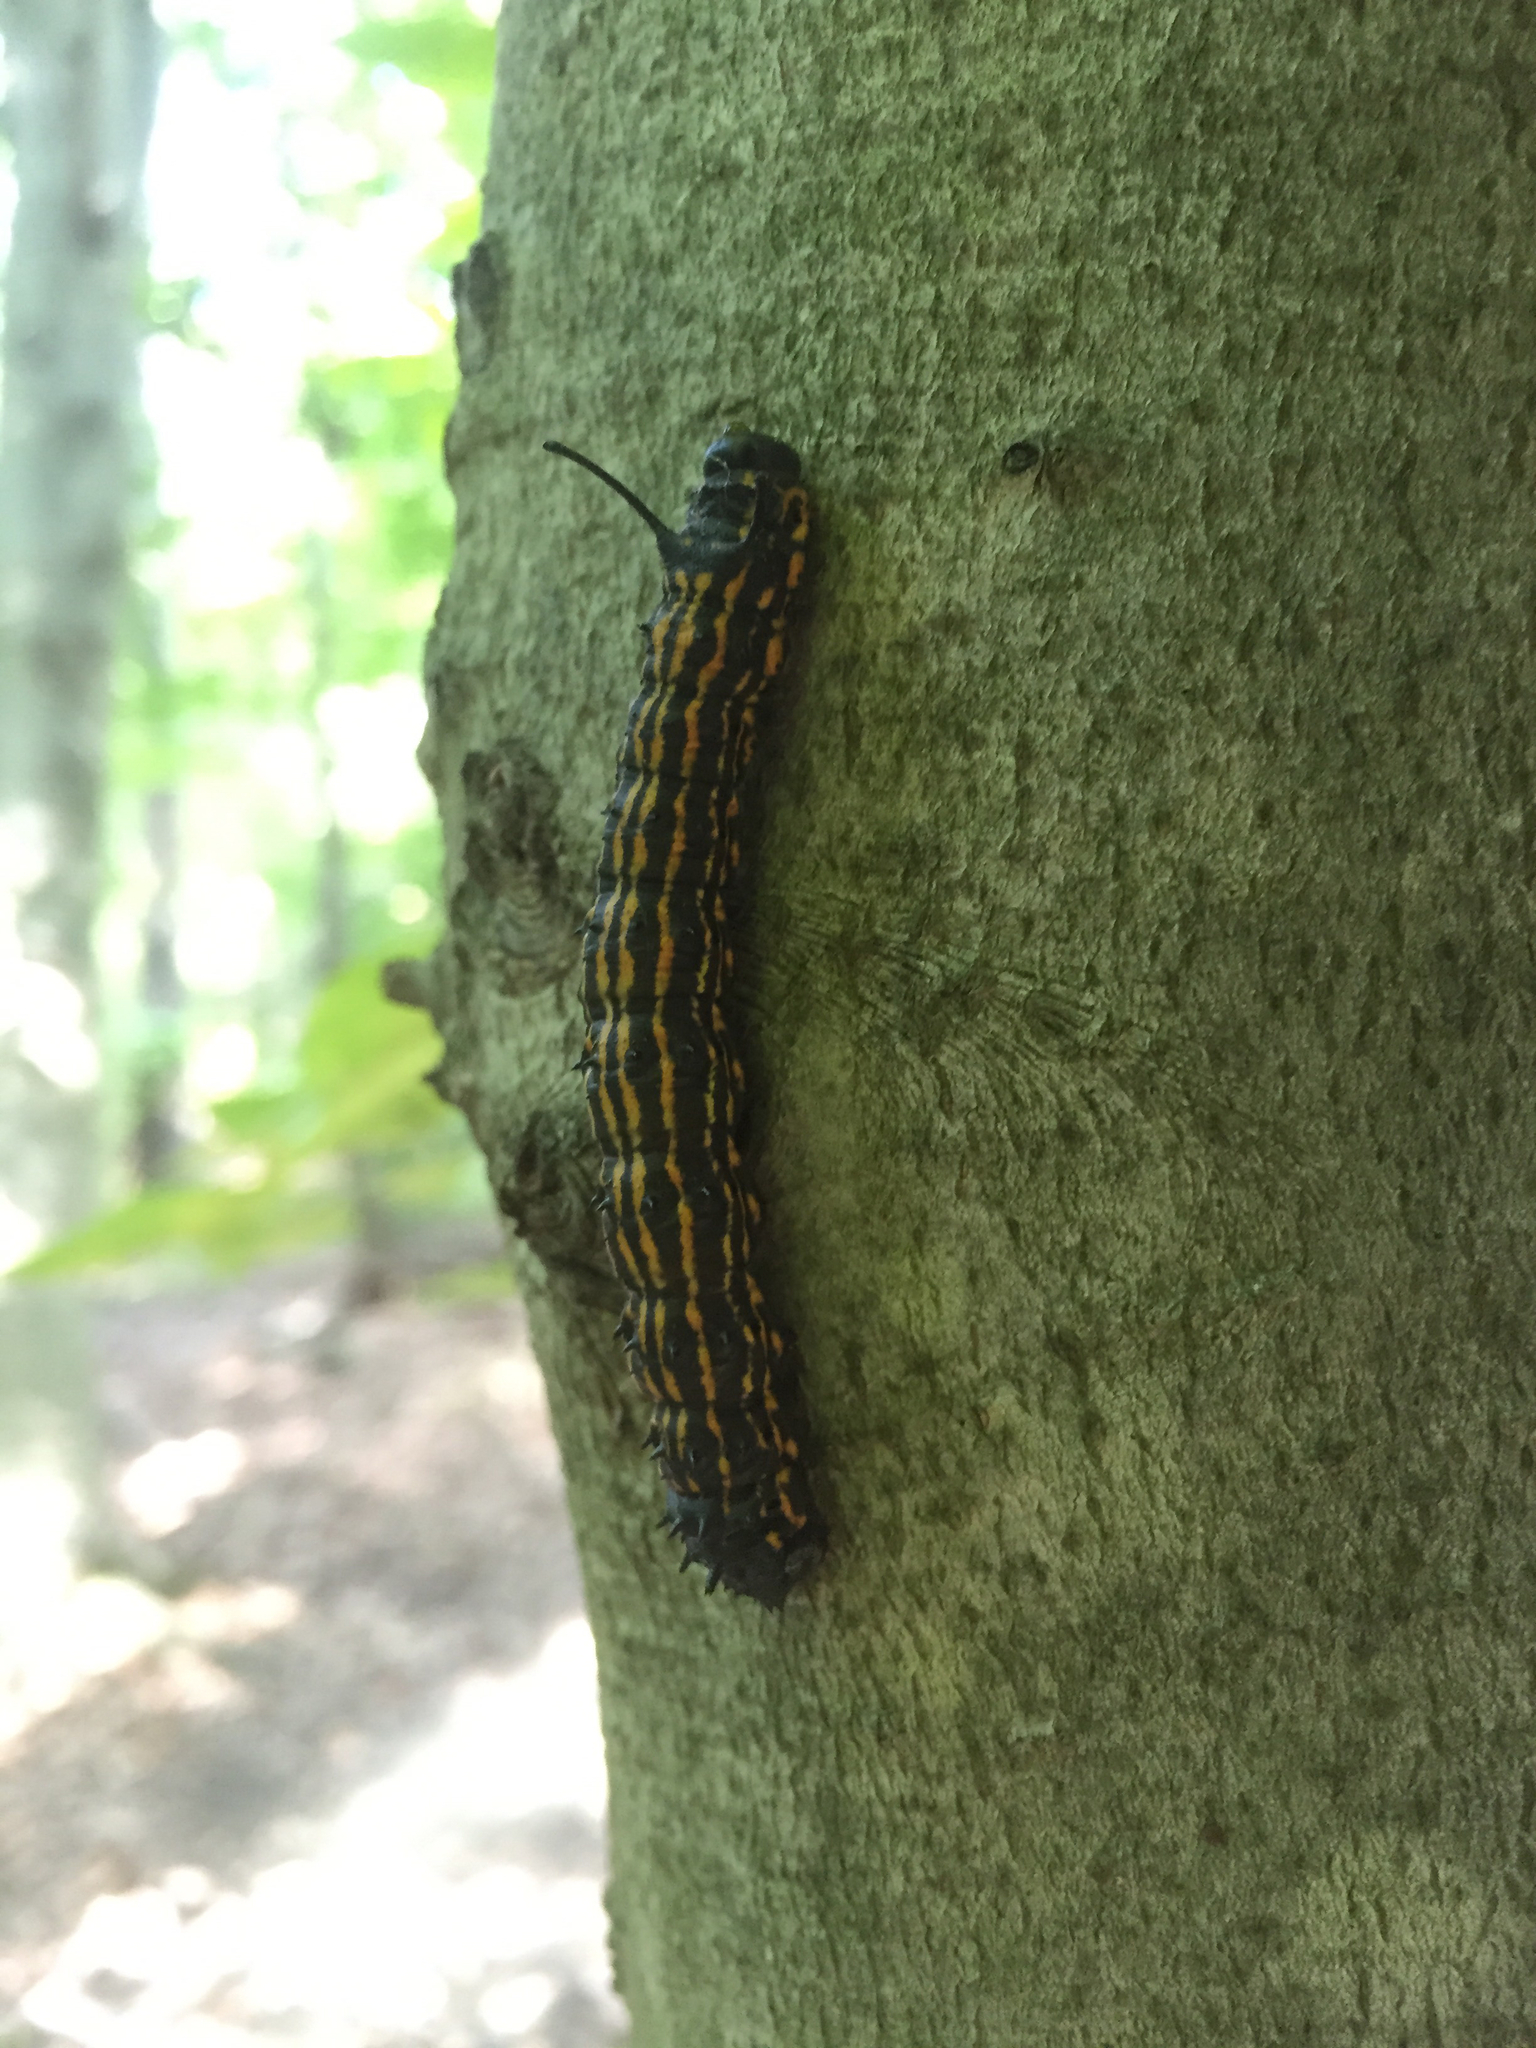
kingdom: Animalia
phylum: Arthropoda
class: Insecta
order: Lepidoptera
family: Saturniidae
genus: Anisota
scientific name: Anisota senatoria
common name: Orange-striped oakworm moth
